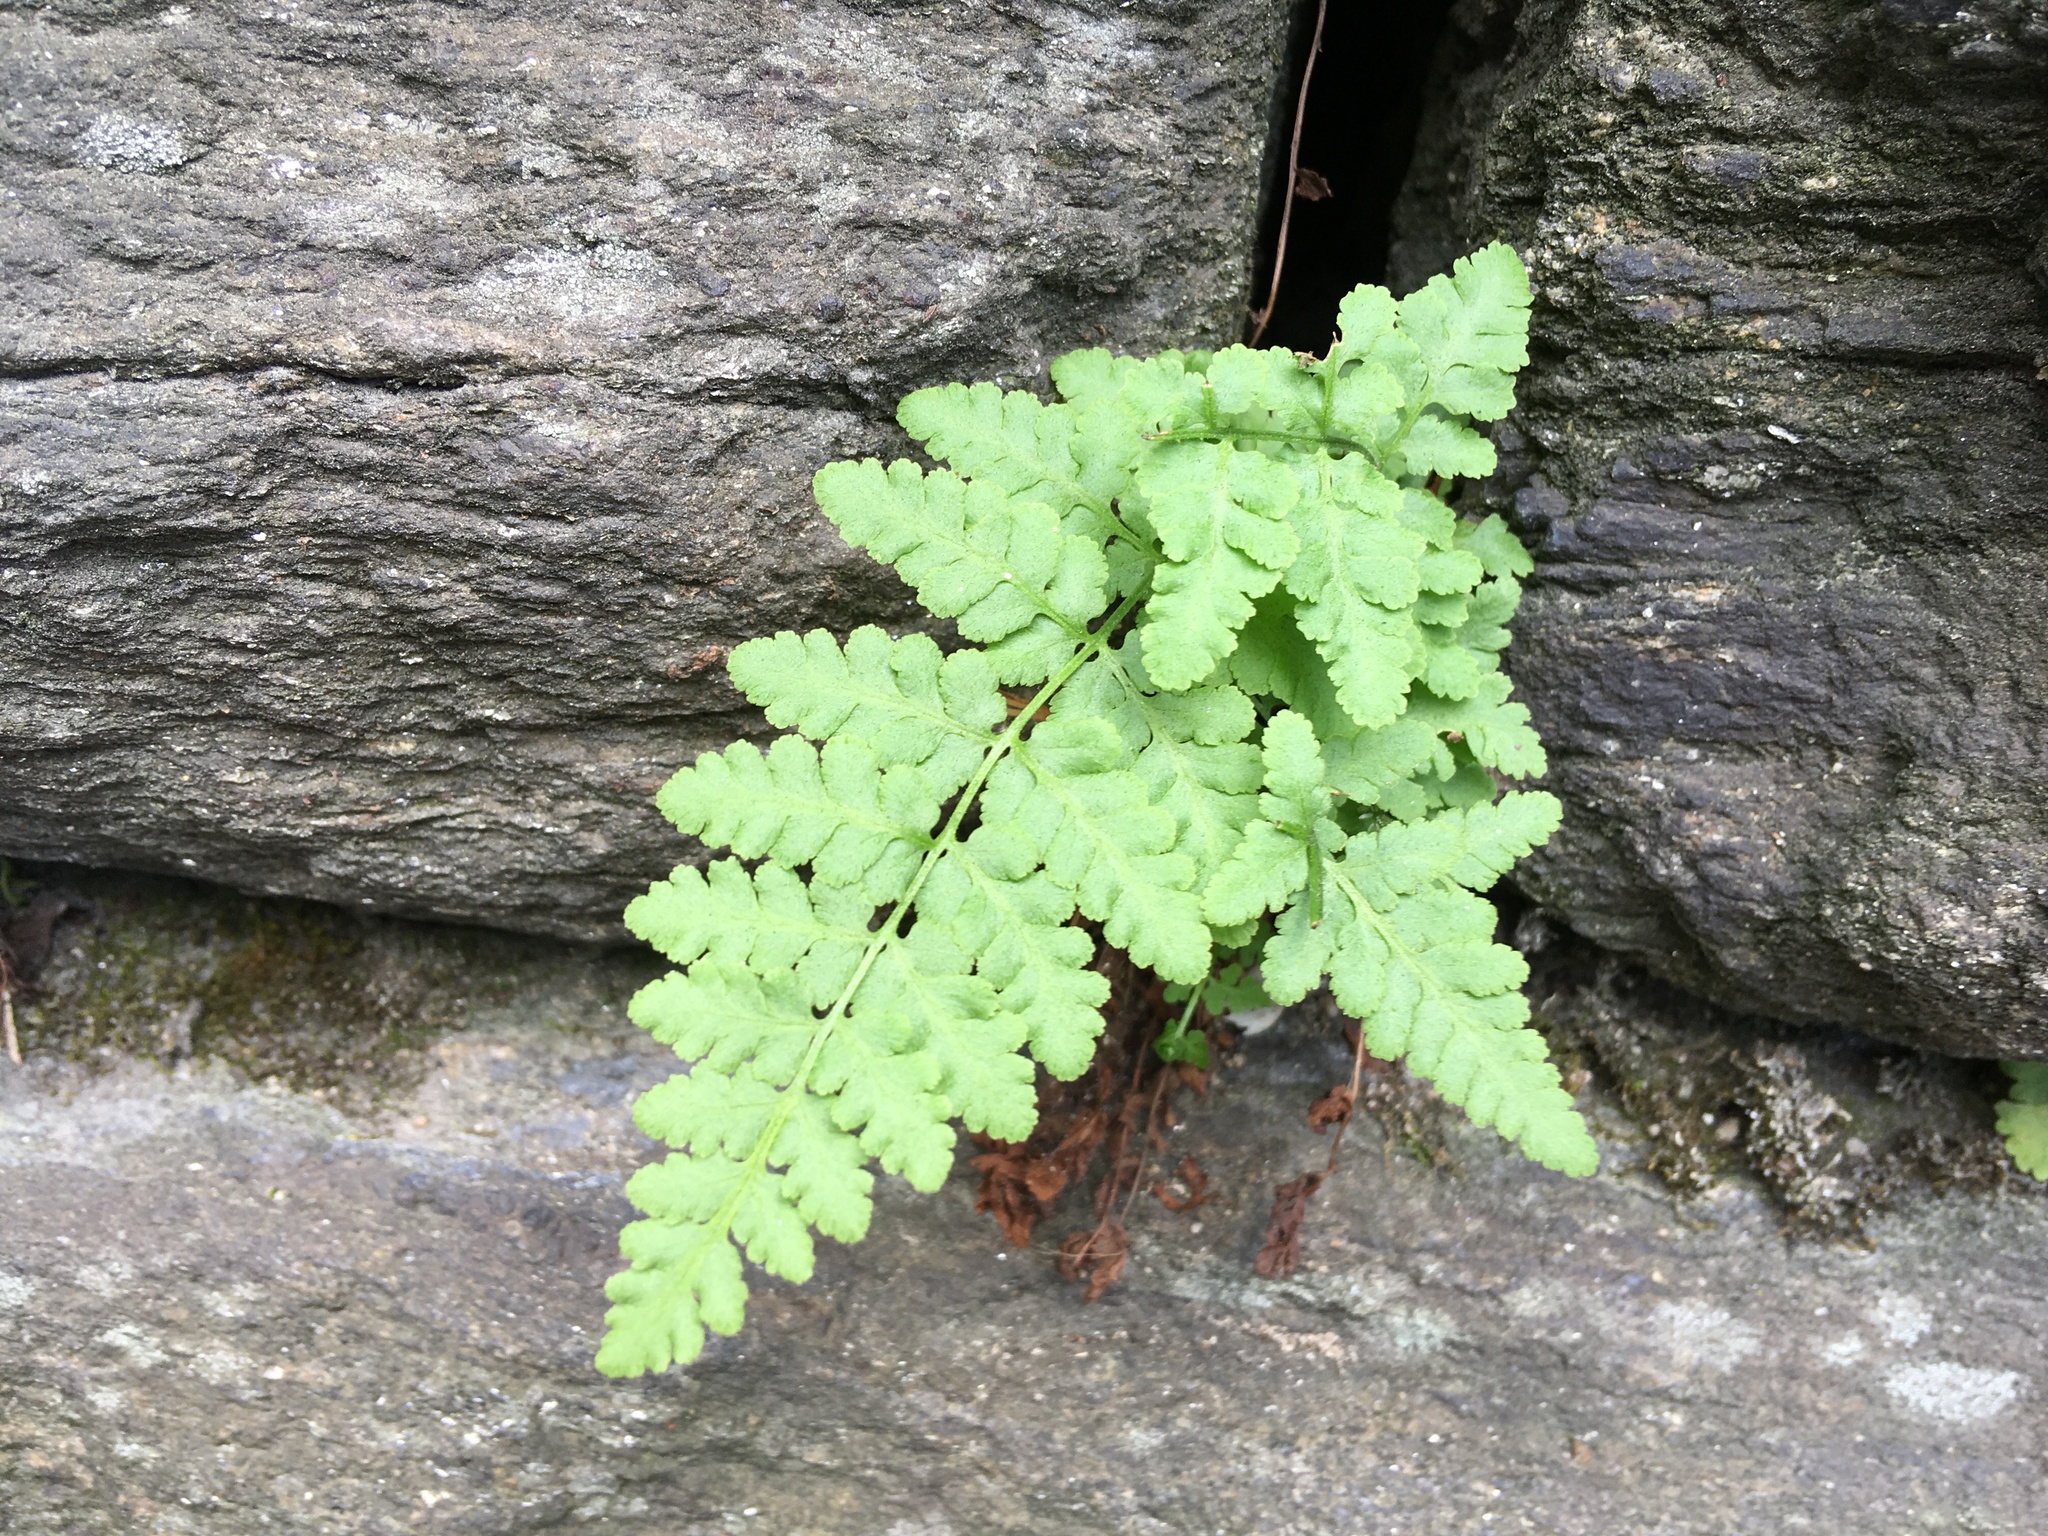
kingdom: Plantae
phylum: Tracheophyta
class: Polypodiopsida
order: Polypodiales
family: Woodsiaceae
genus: Physematium
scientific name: Physematium obtusum
